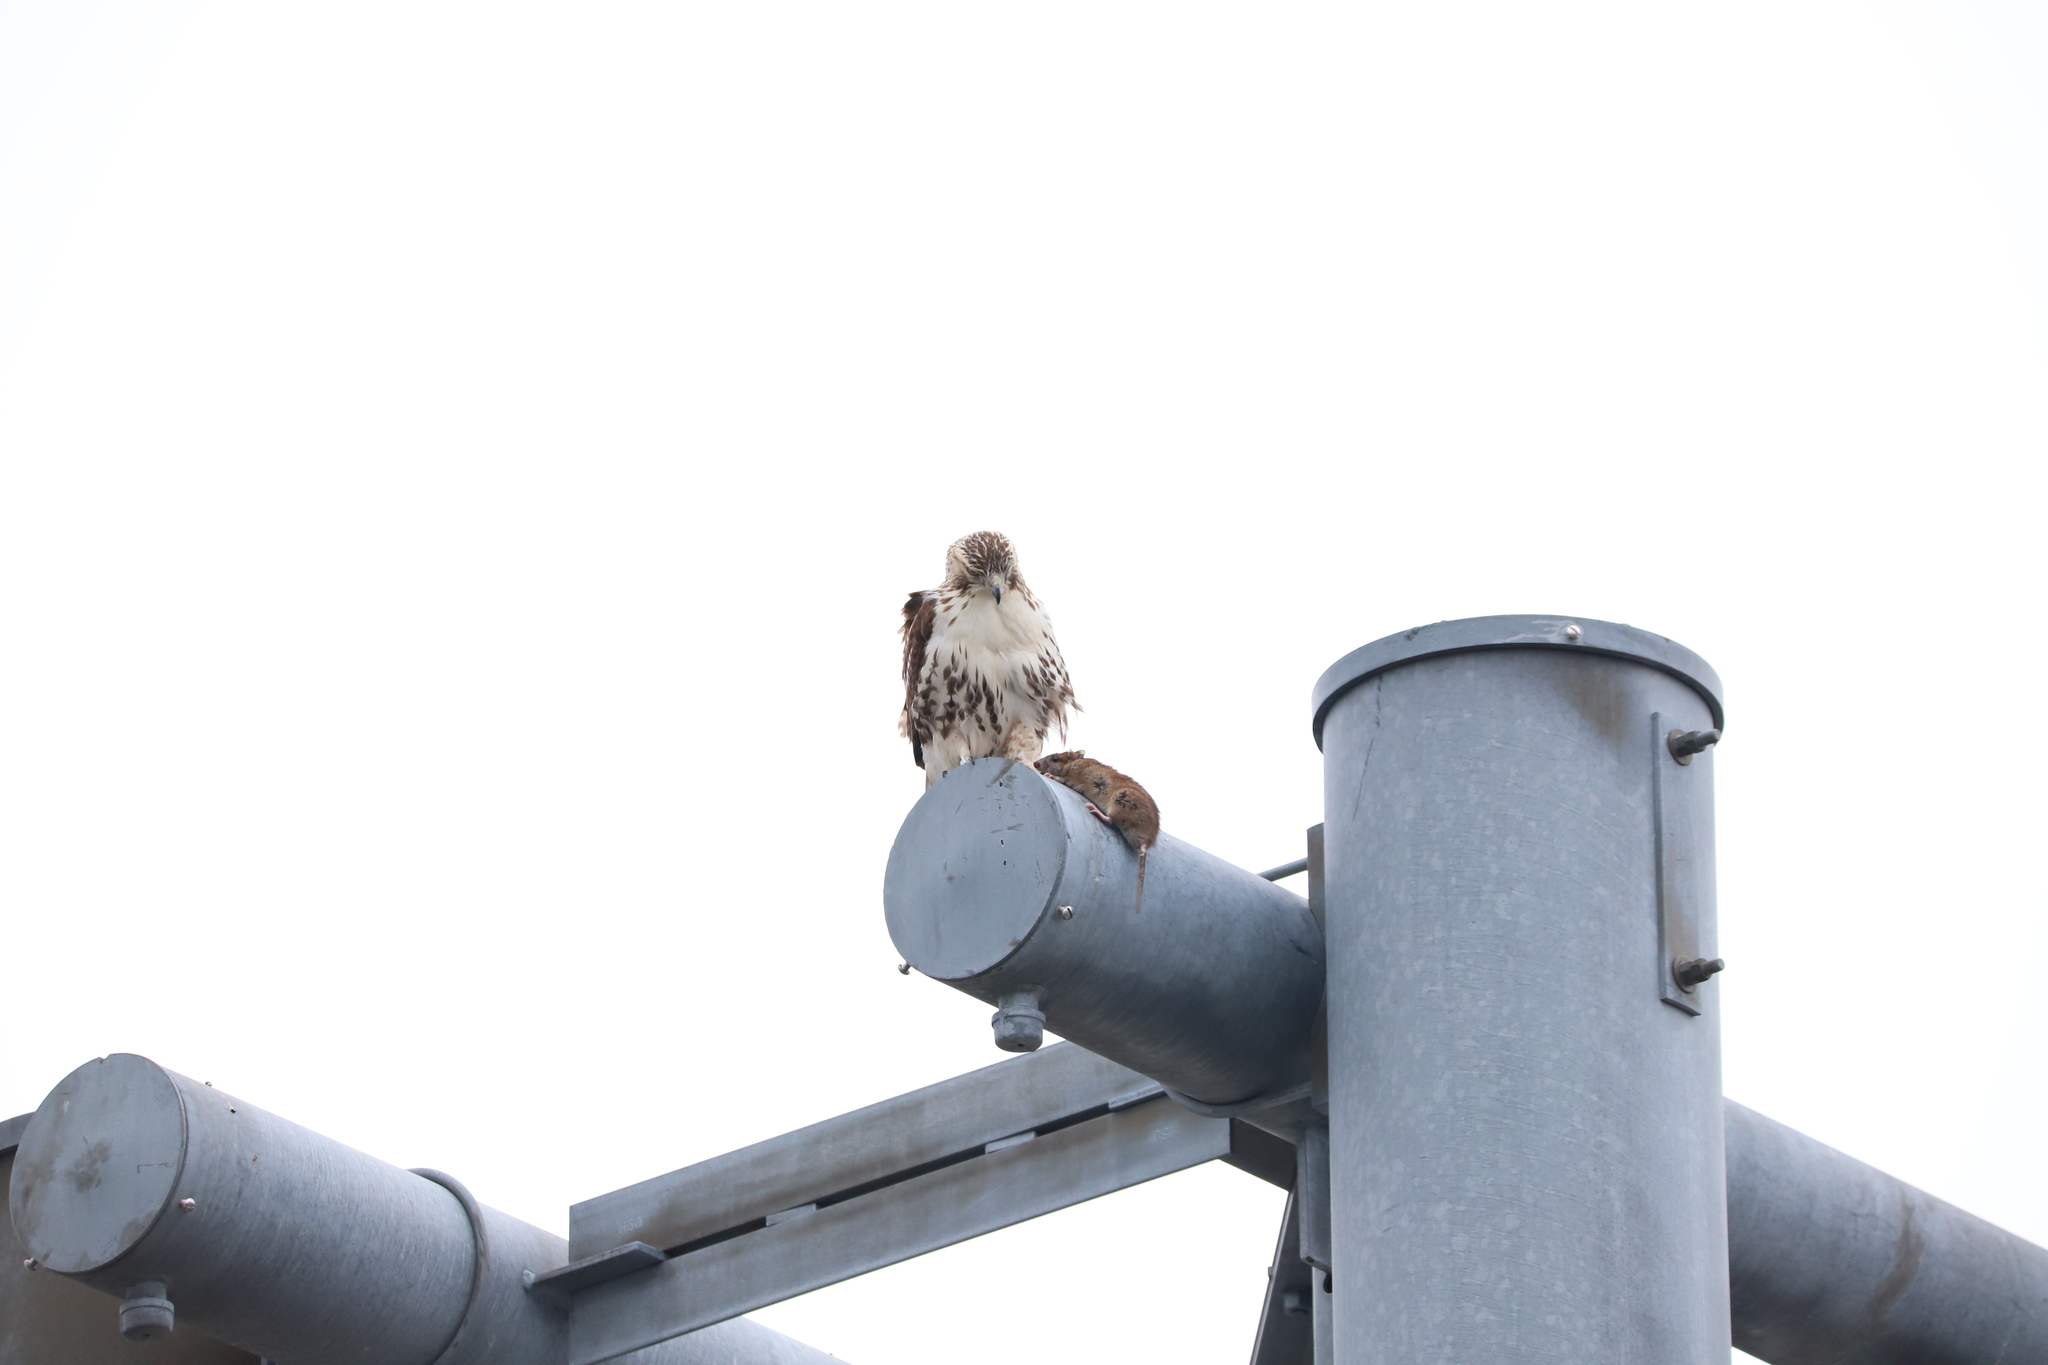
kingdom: Animalia
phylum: Chordata
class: Mammalia
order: Rodentia
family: Muridae
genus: Rattus
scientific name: Rattus norvegicus
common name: Brown rat
